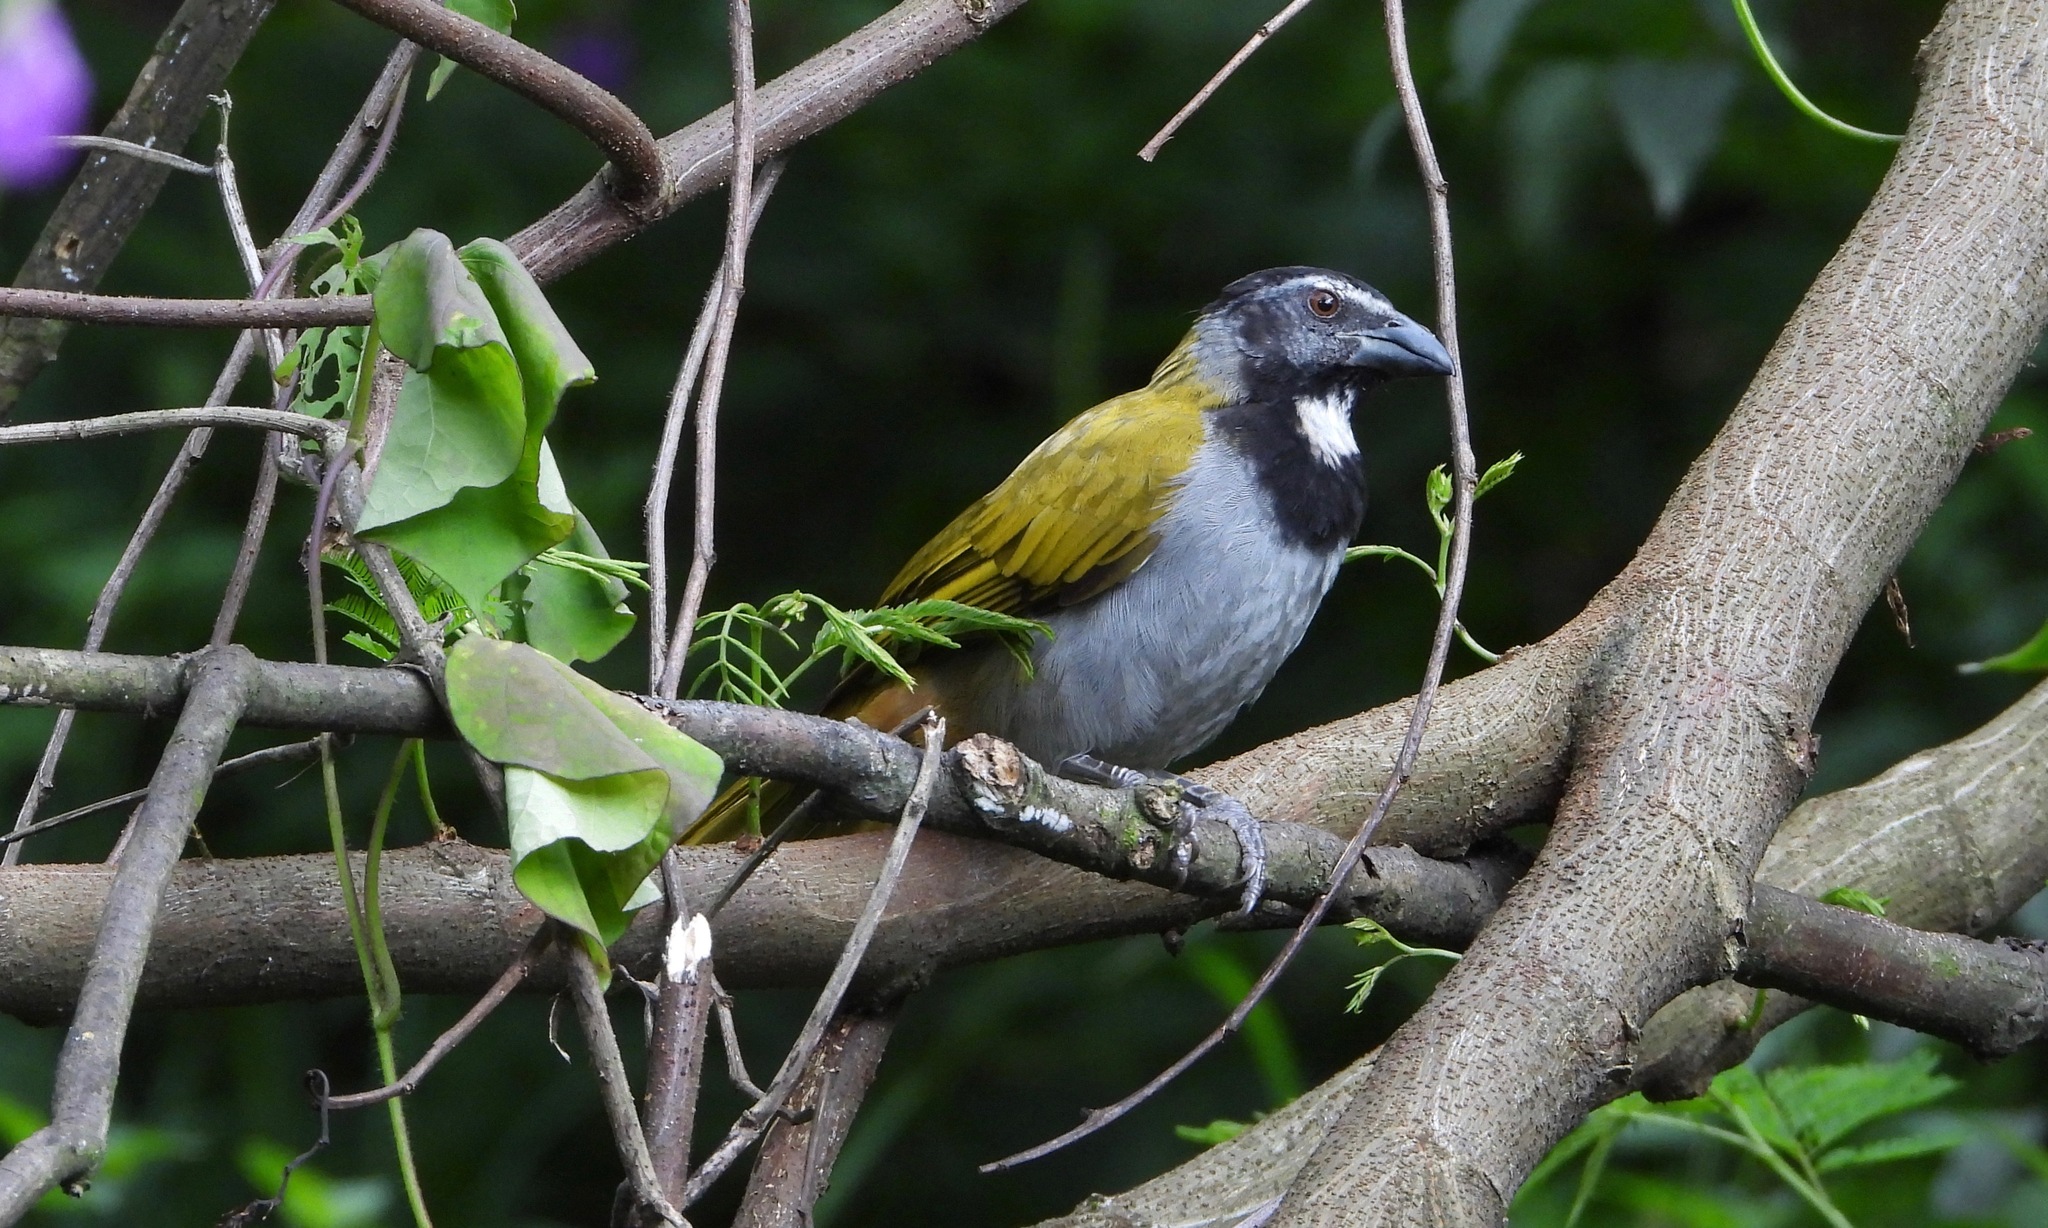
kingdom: Animalia
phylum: Chordata
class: Aves
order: Passeriformes
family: Thraupidae
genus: Saltator
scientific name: Saltator atriceps
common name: Black-headed saltator
